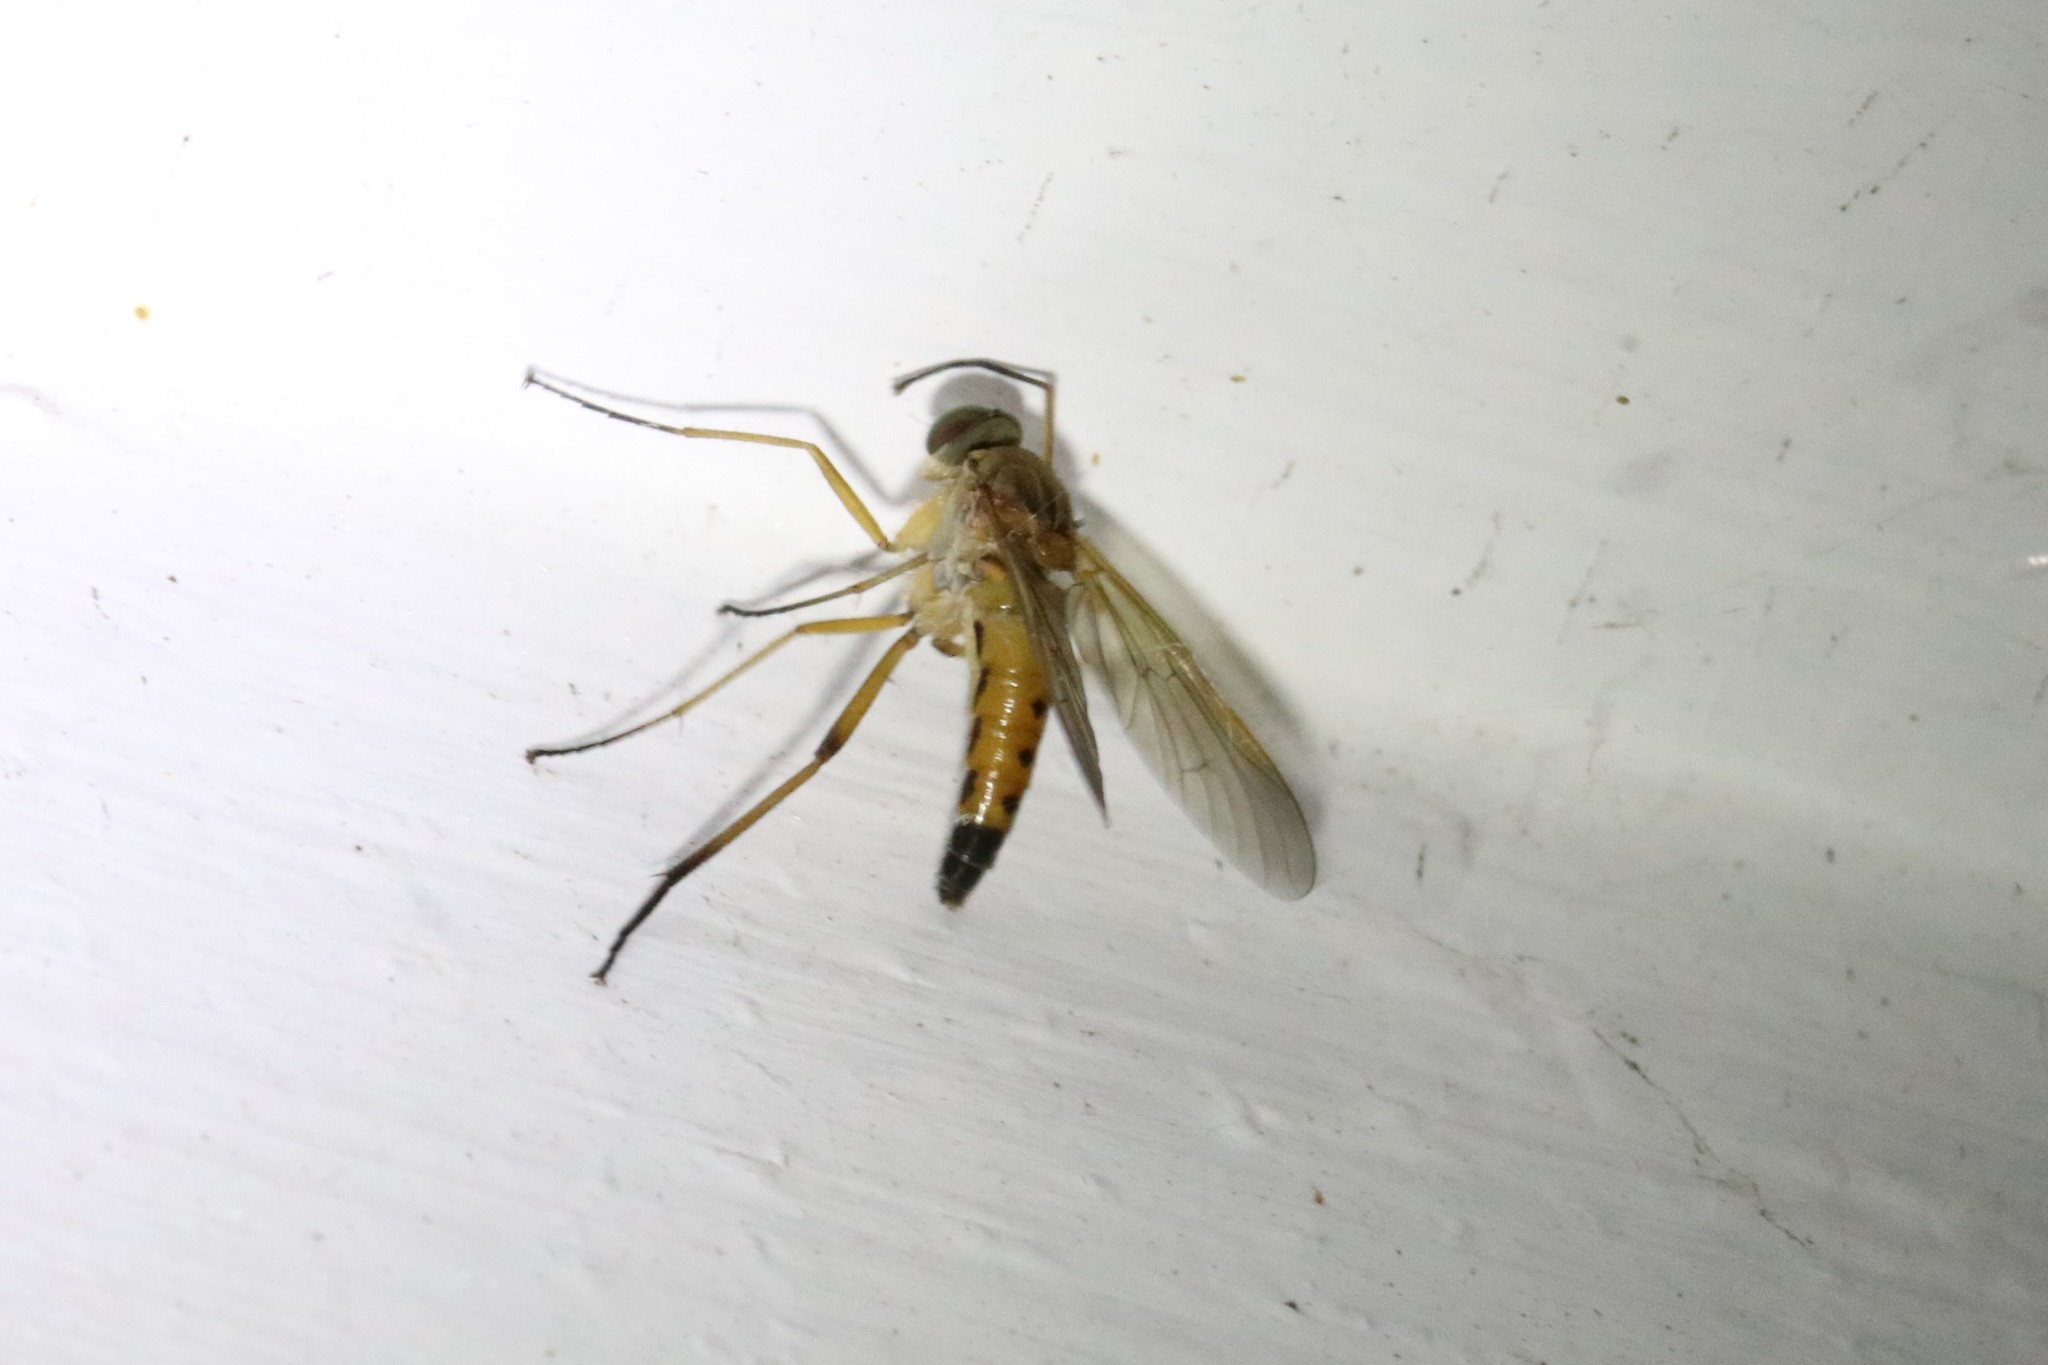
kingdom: Animalia
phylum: Arthropoda
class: Insecta
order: Diptera
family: Rhagionidae
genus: Rhagio
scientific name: Rhagio tringaria
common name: Marsh snipefly
